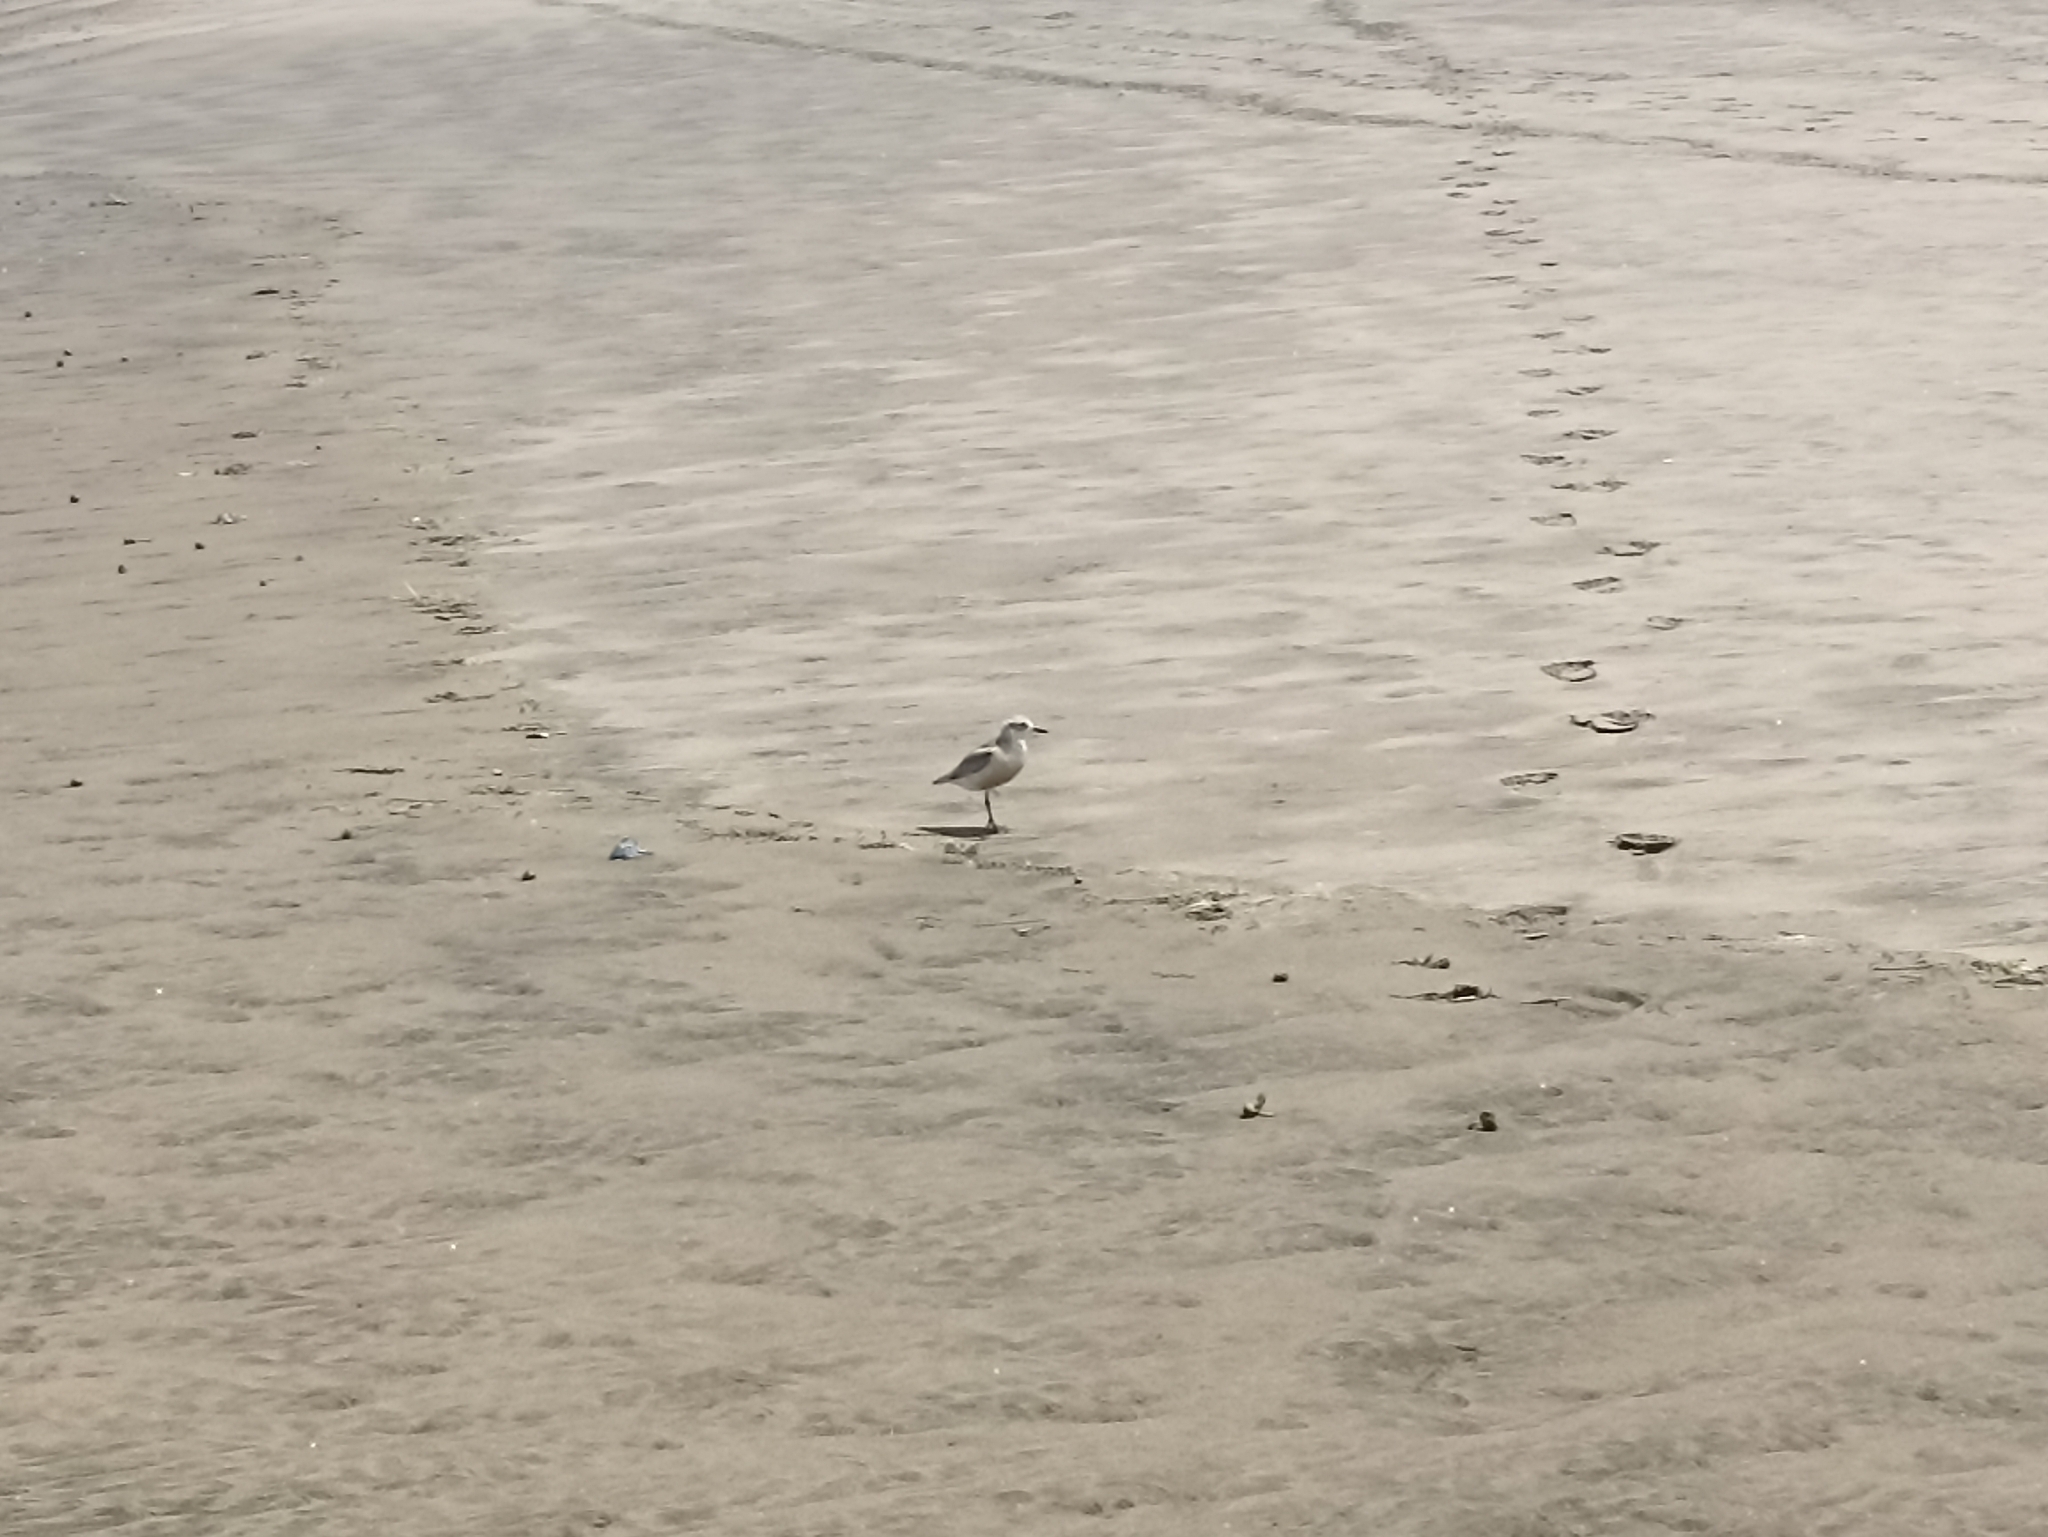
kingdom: Animalia
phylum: Chordata
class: Aves
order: Charadriiformes
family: Charadriidae
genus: Anarhynchus
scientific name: Anarhynchus
